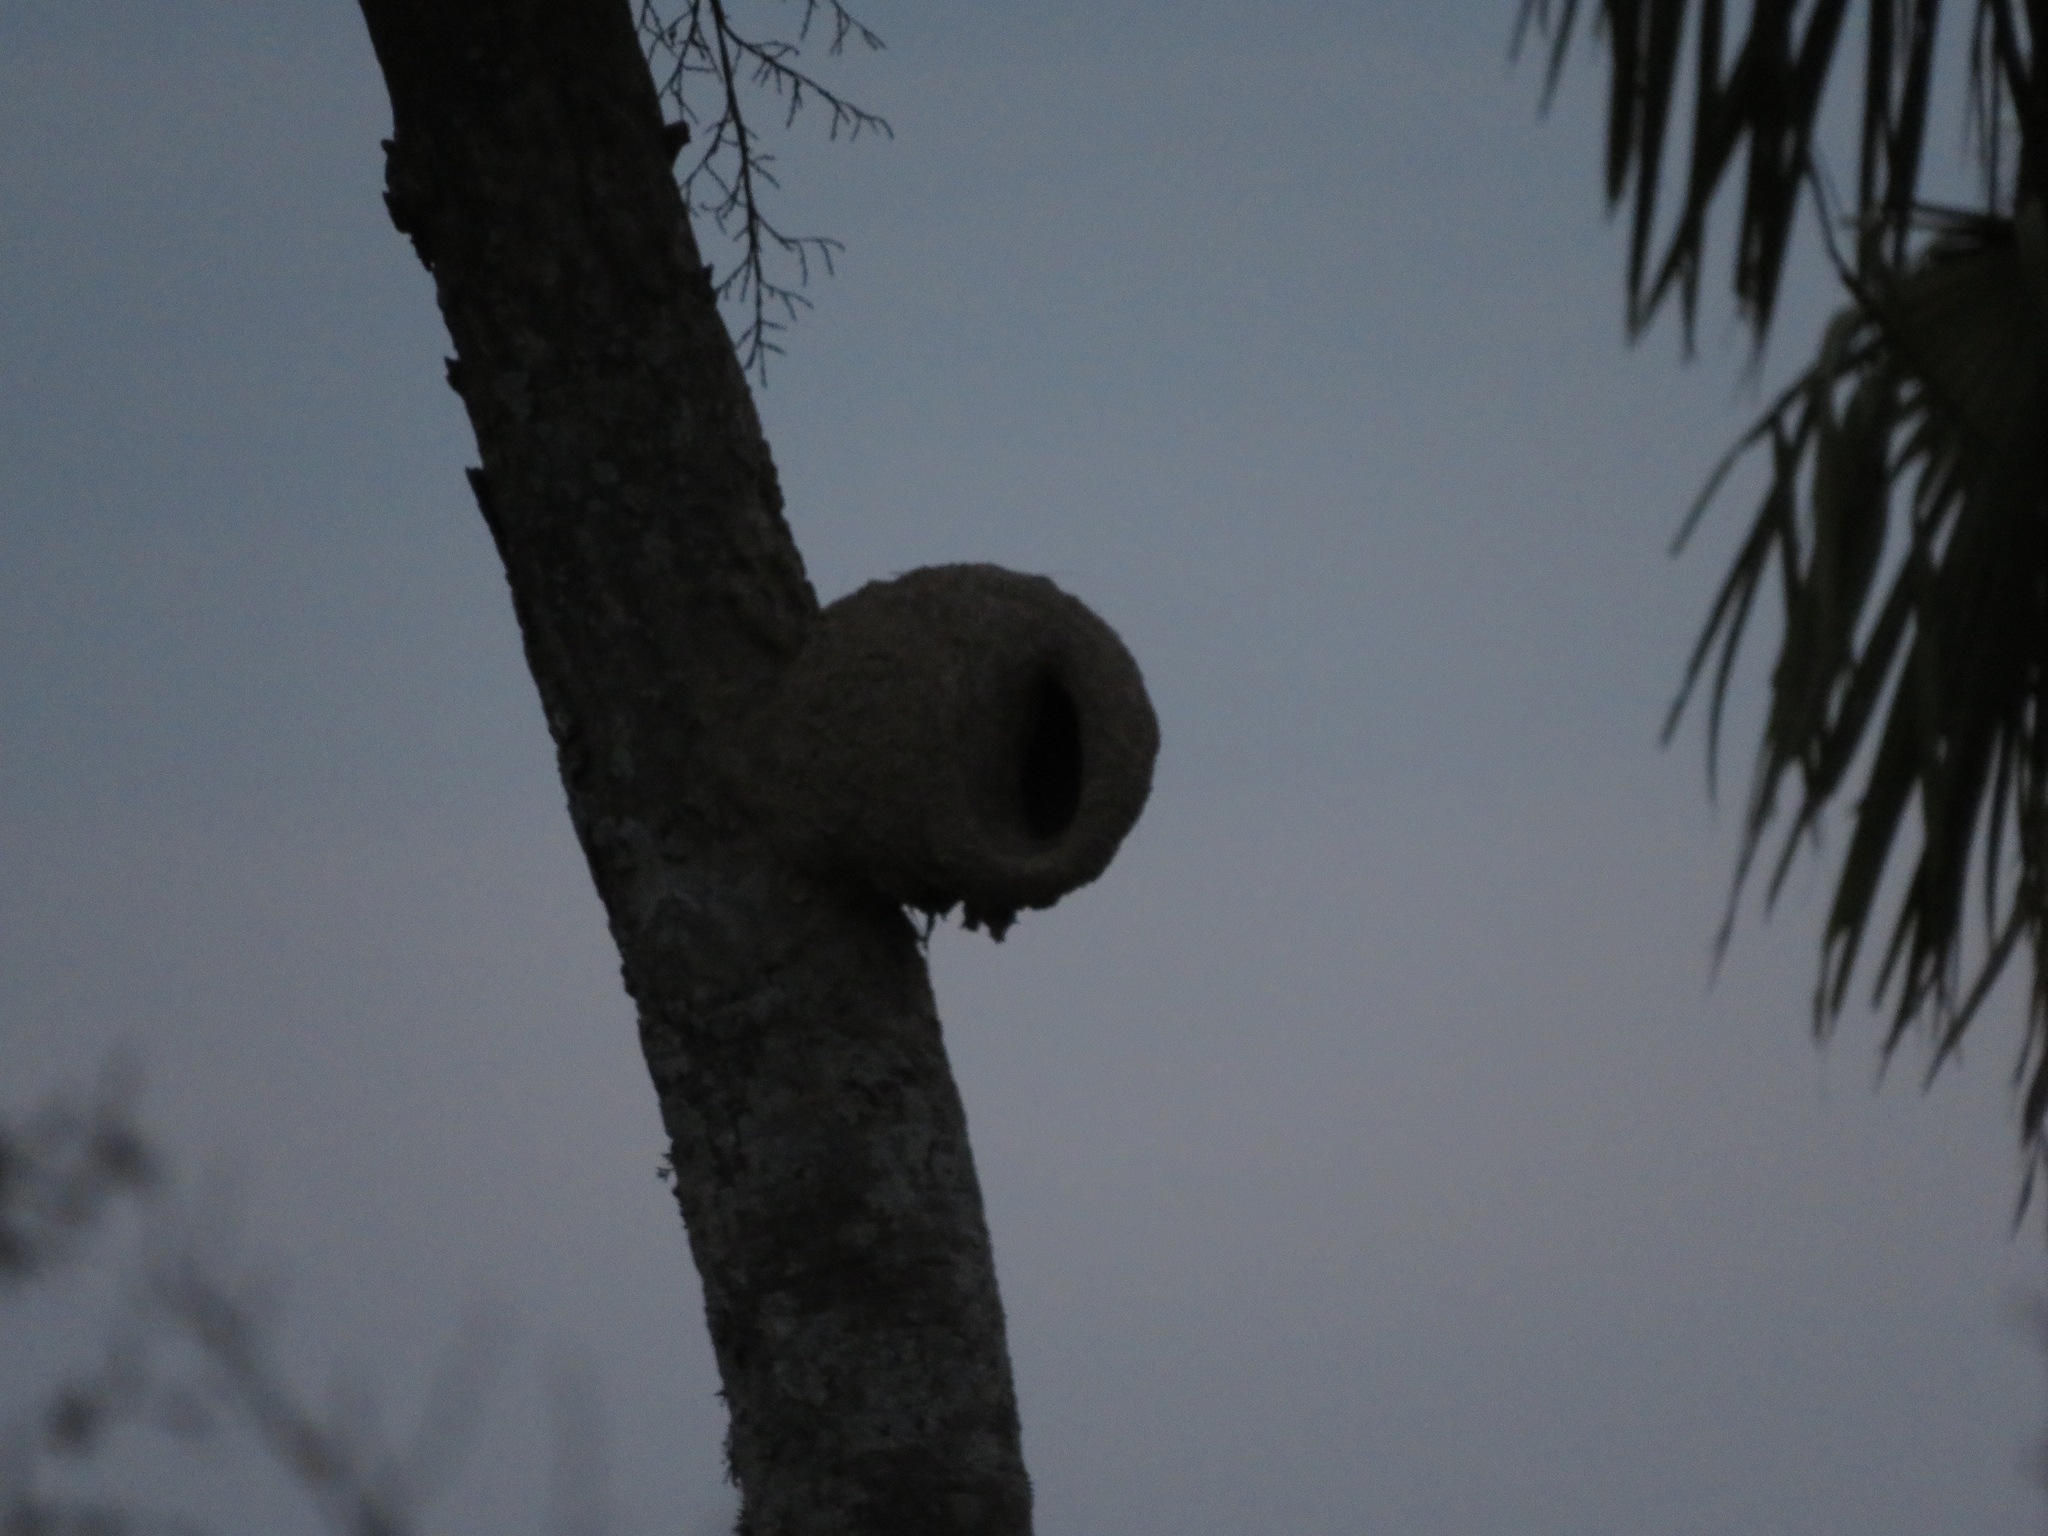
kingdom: Animalia
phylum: Chordata
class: Aves
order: Passeriformes
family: Furnariidae
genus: Furnarius
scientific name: Furnarius rufus
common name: Rufous hornero
